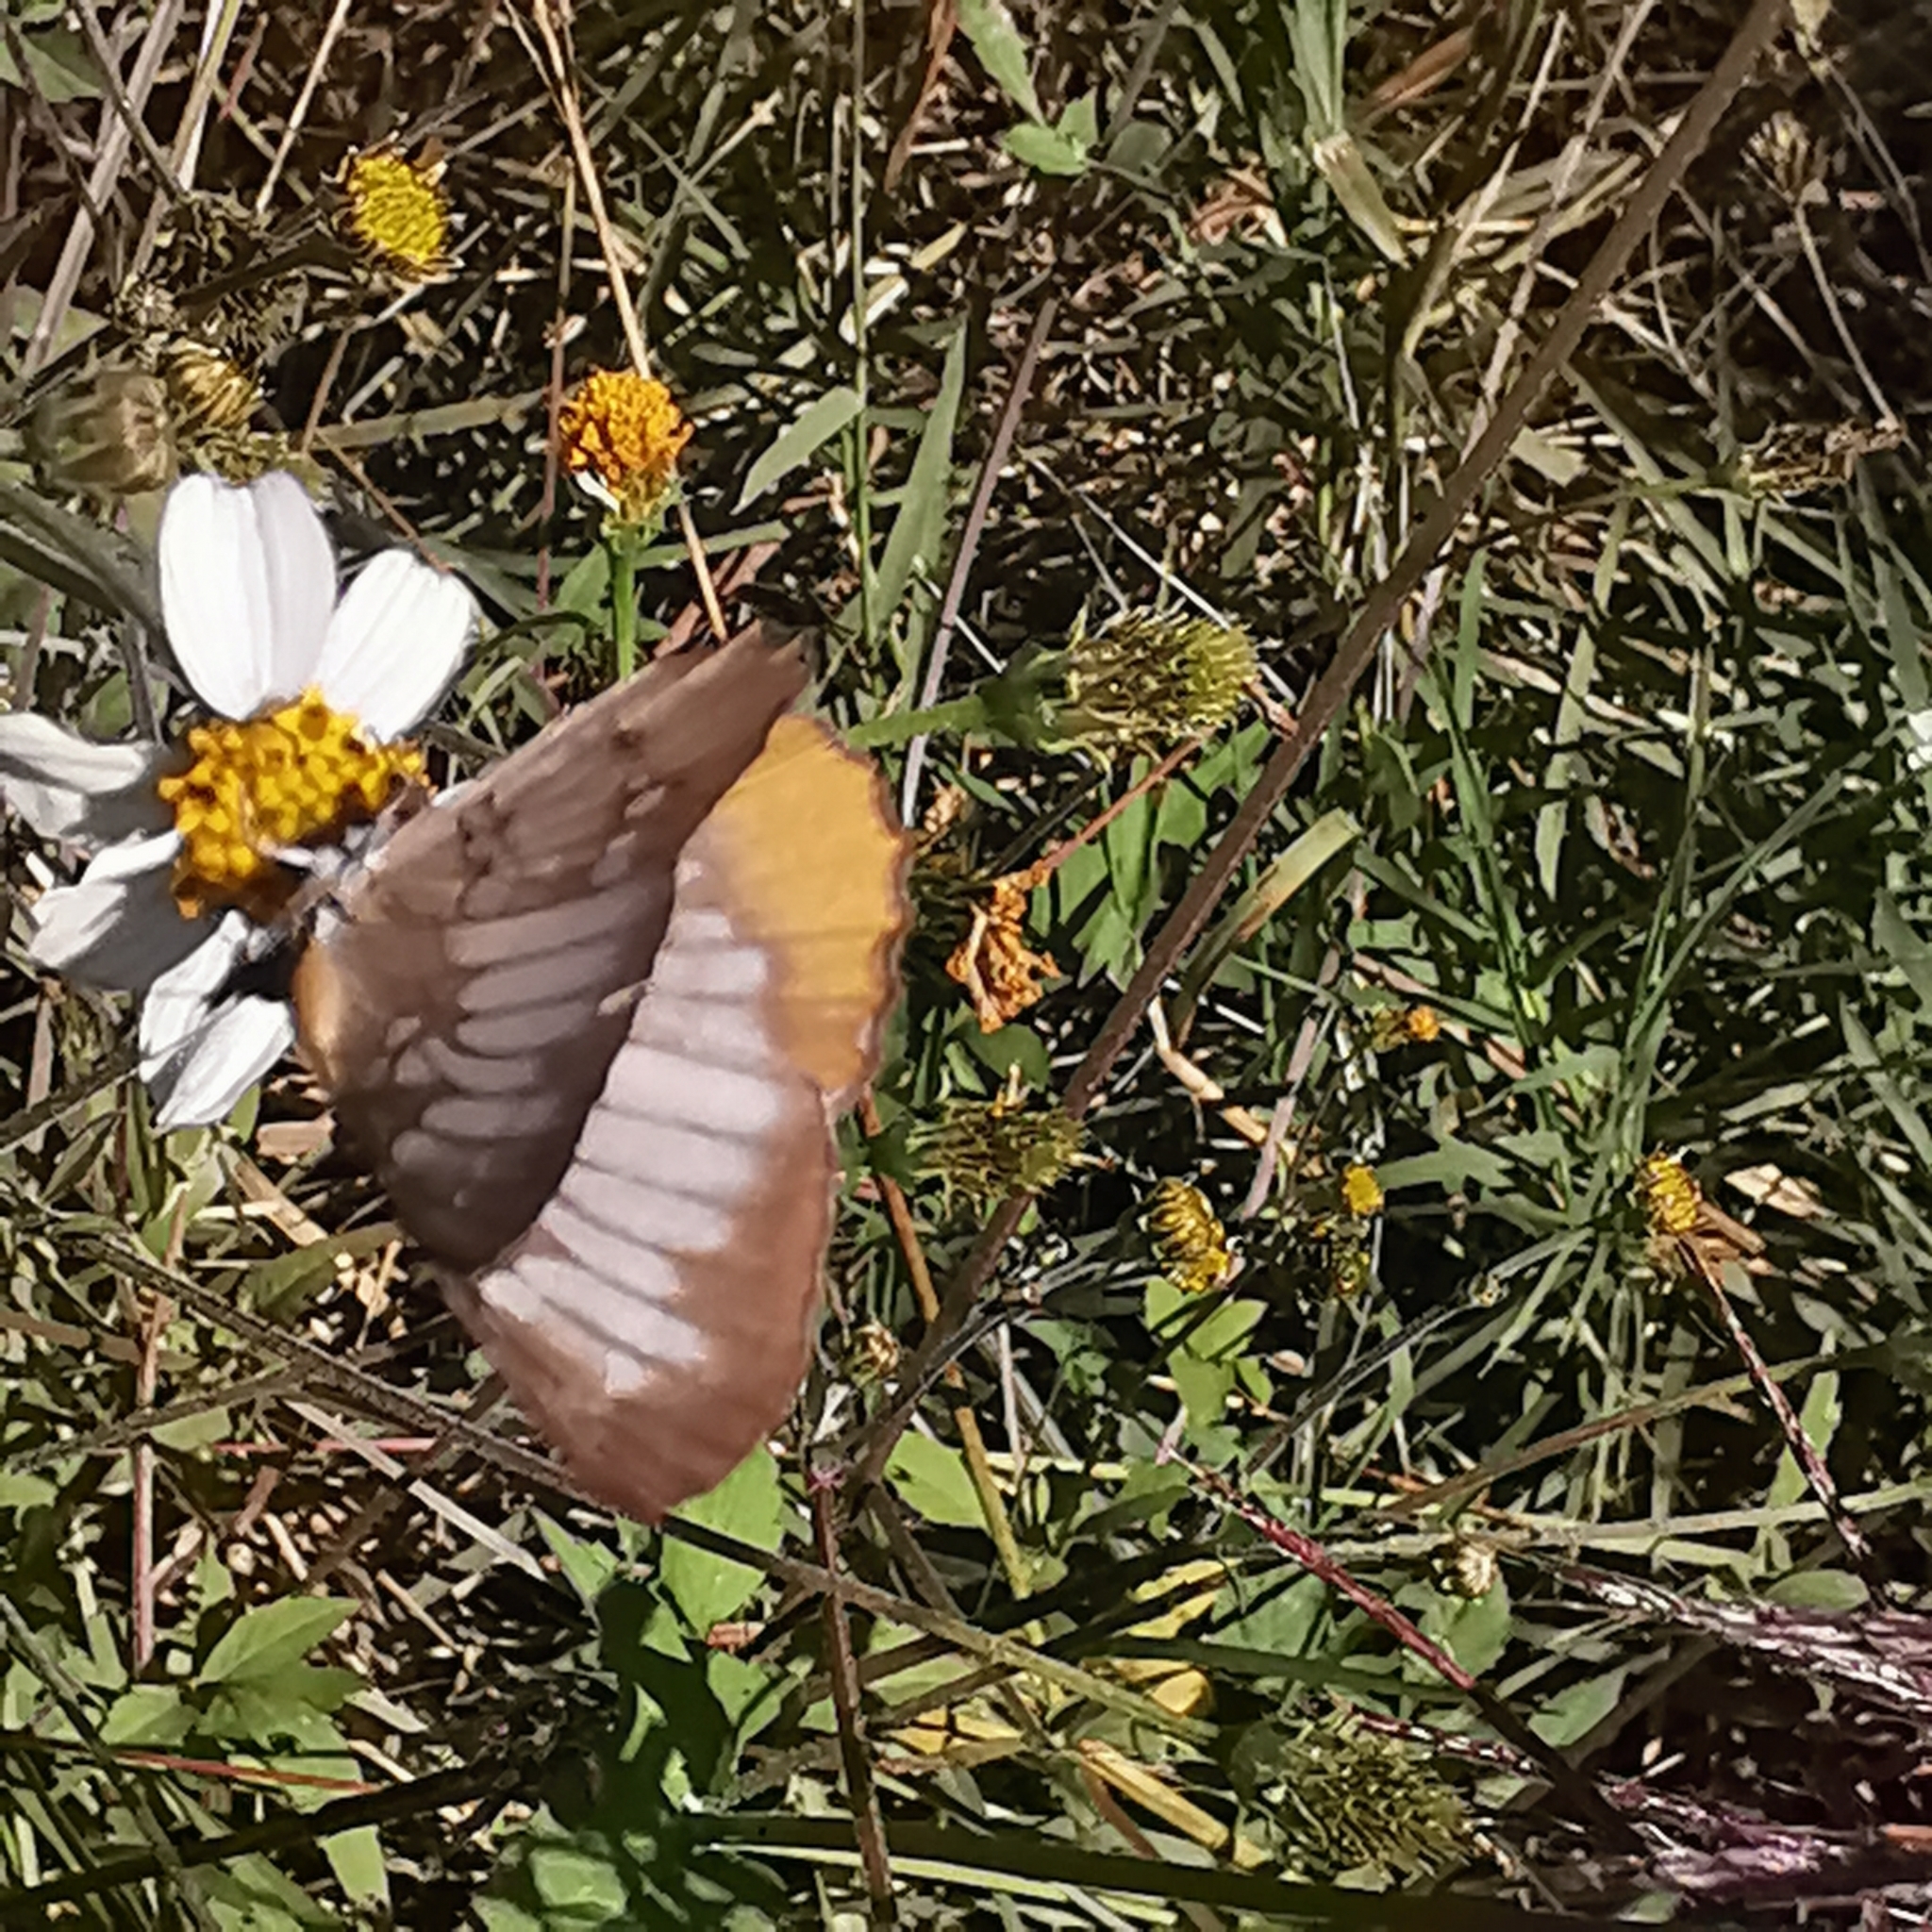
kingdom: Animalia
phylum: Arthropoda
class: Insecta
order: Lepidoptera
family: Nymphalidae
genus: Mestra
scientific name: Mestra amymone
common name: Common mestra
